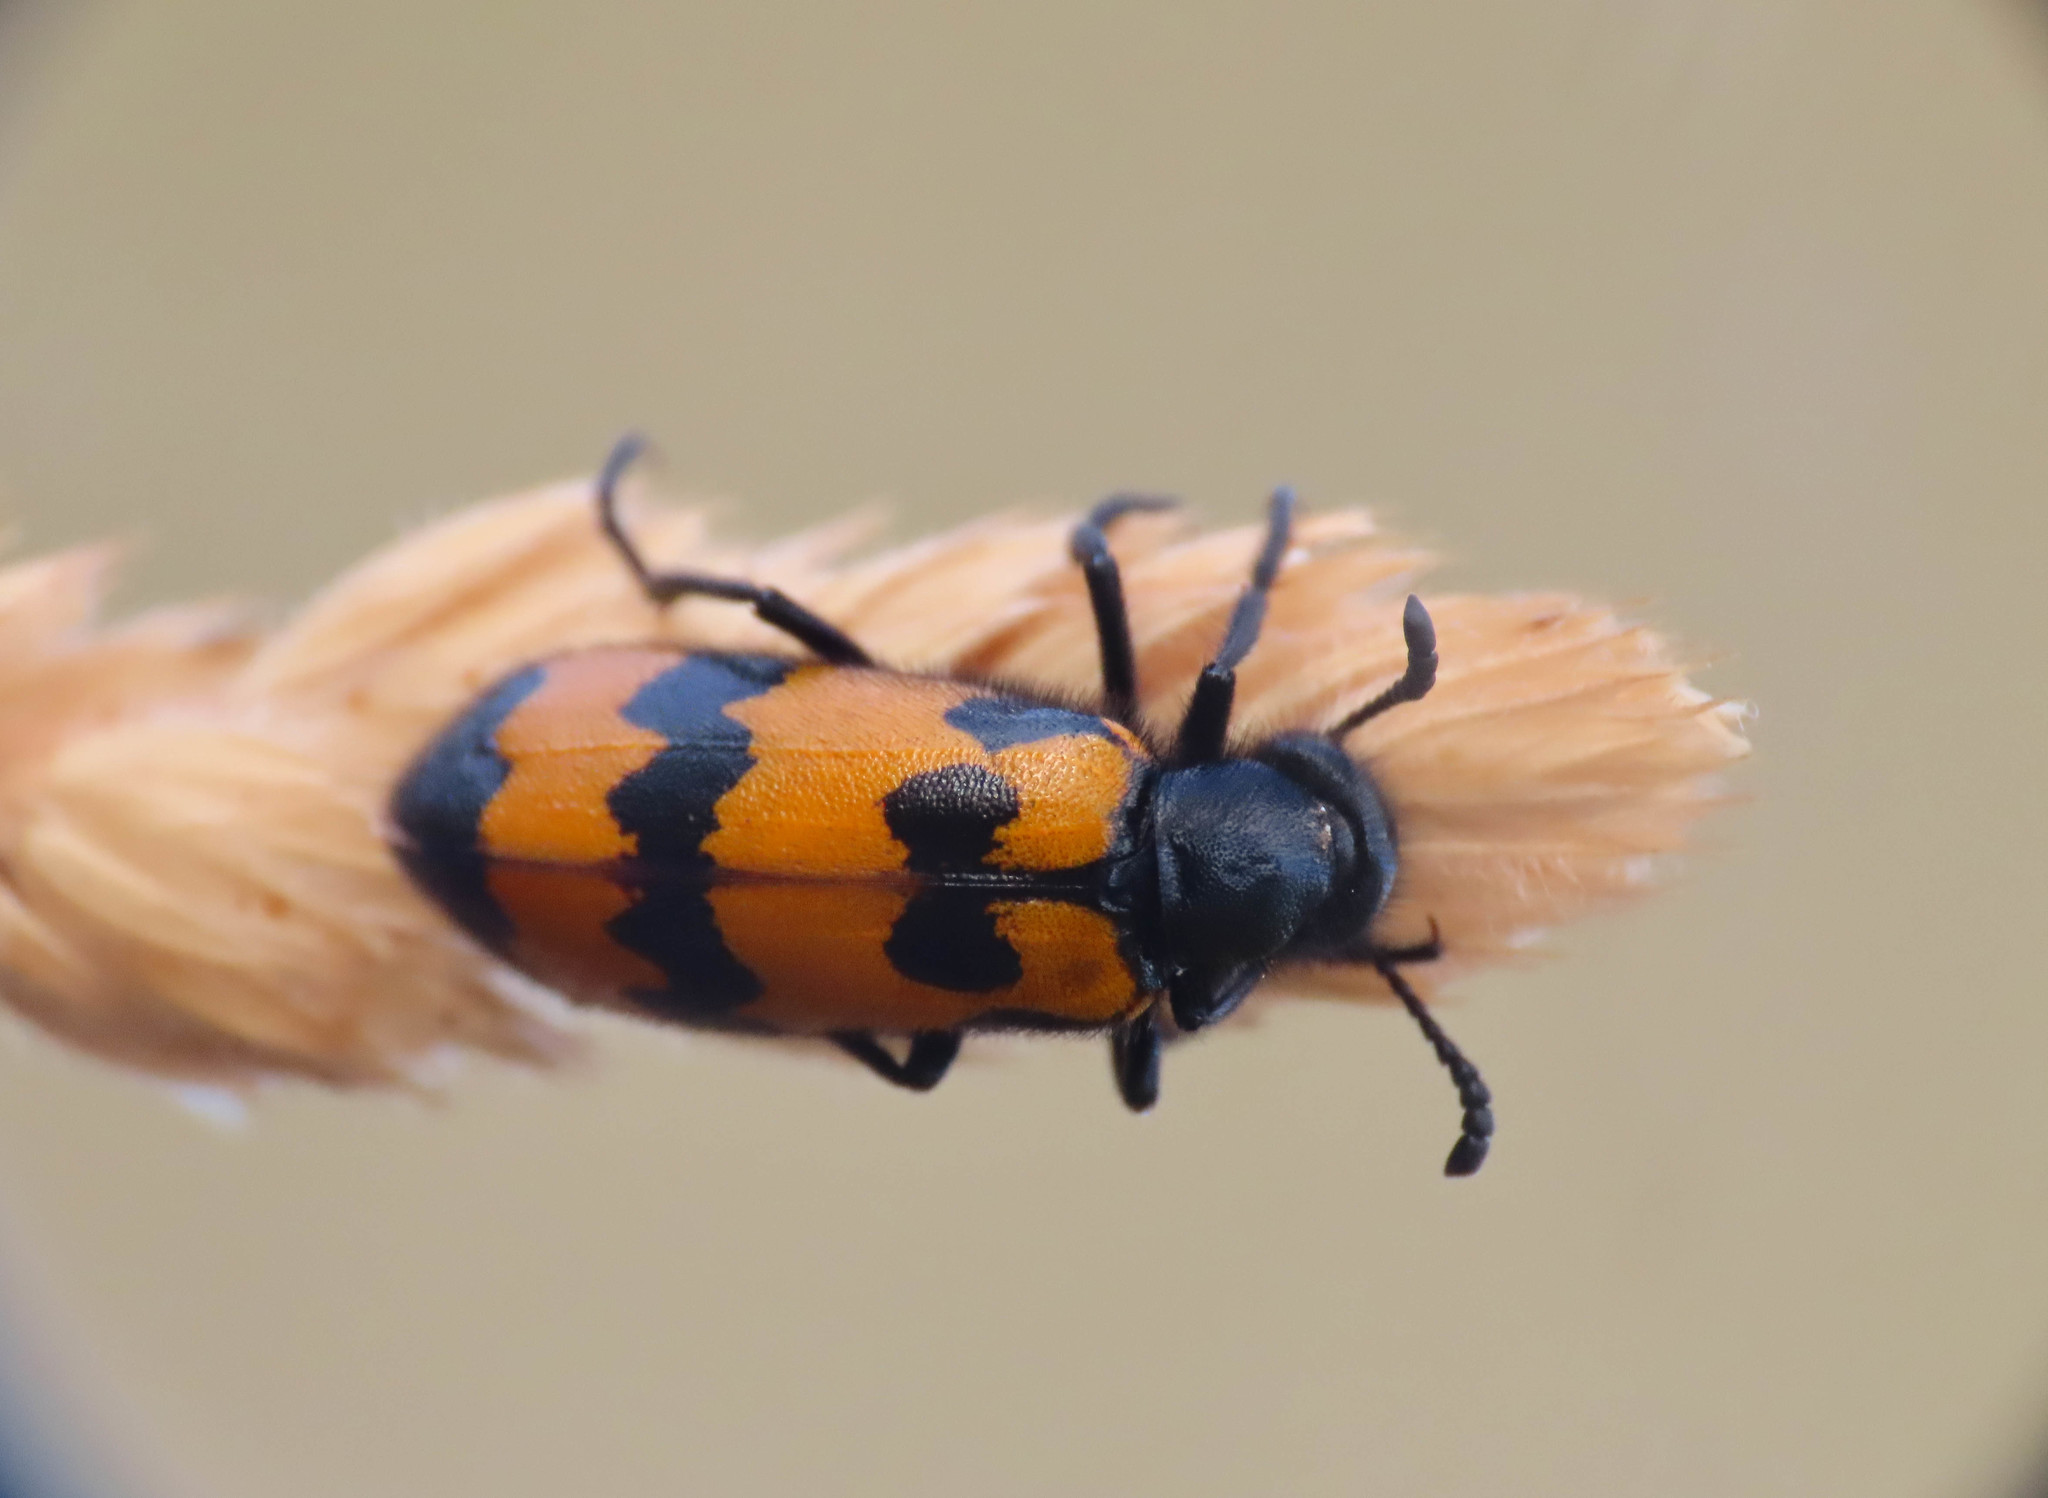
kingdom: Animalia
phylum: Arthropoda
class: Insecta
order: Coleoptera
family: Meloidae
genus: Mylabris
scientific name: Mylabris variabilis
